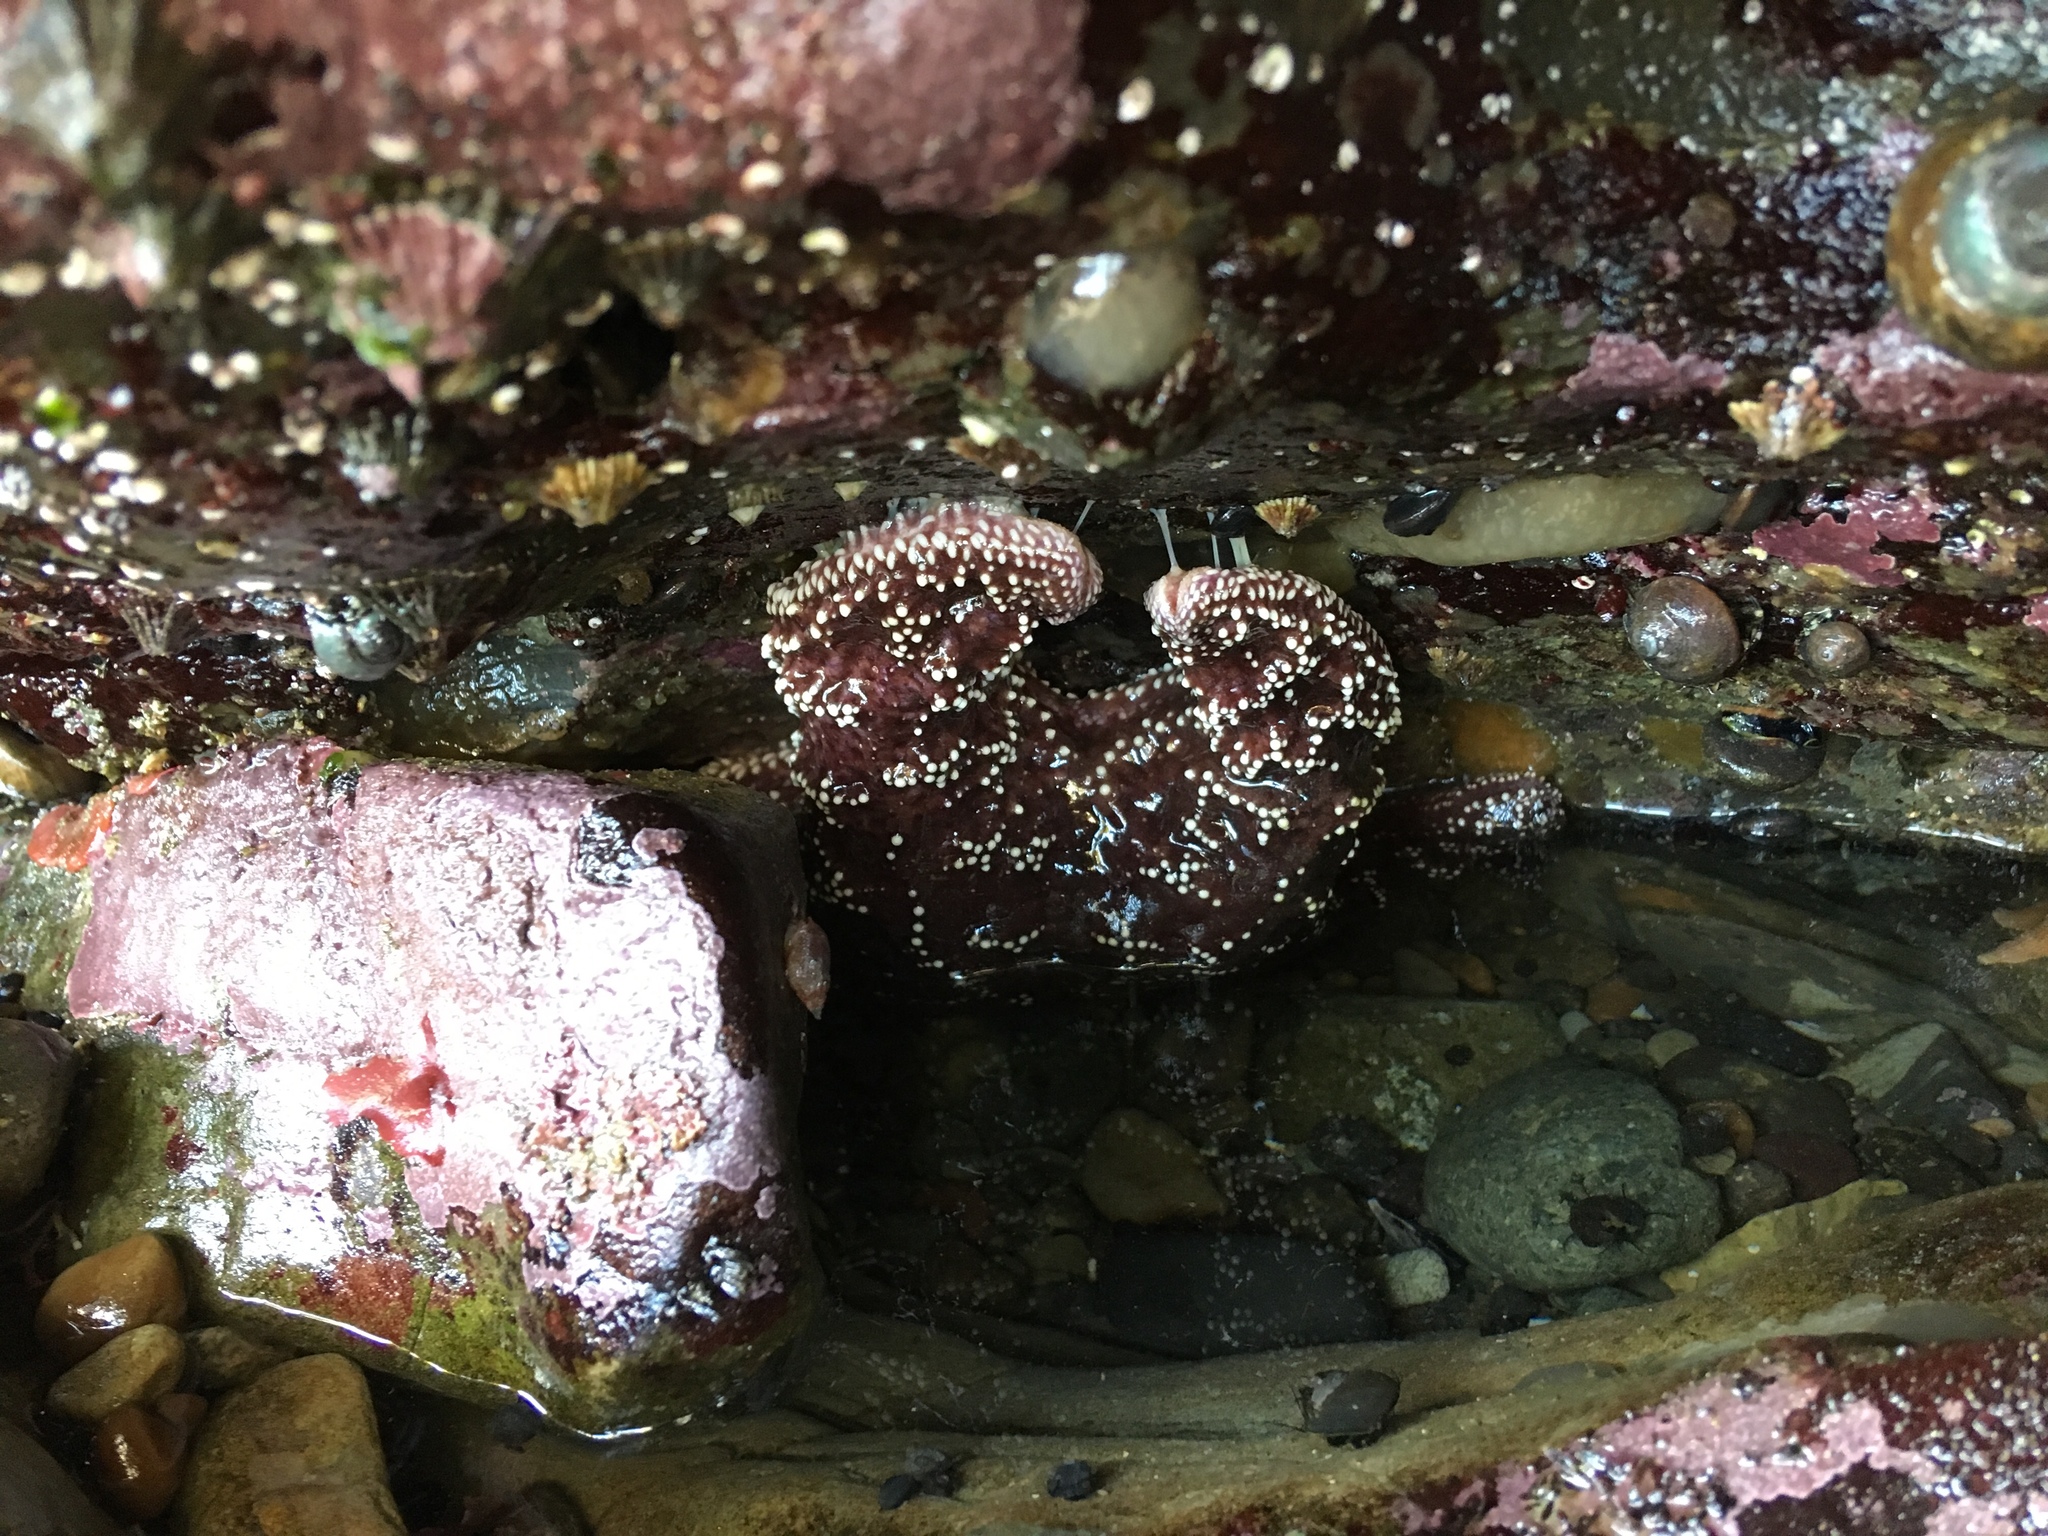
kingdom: Animalia
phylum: Echinodermata
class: Asteroidea
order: Forcipulatida
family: Asteriidae
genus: Pisaster
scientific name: Pisaster ochraceus
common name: Ochre stars
